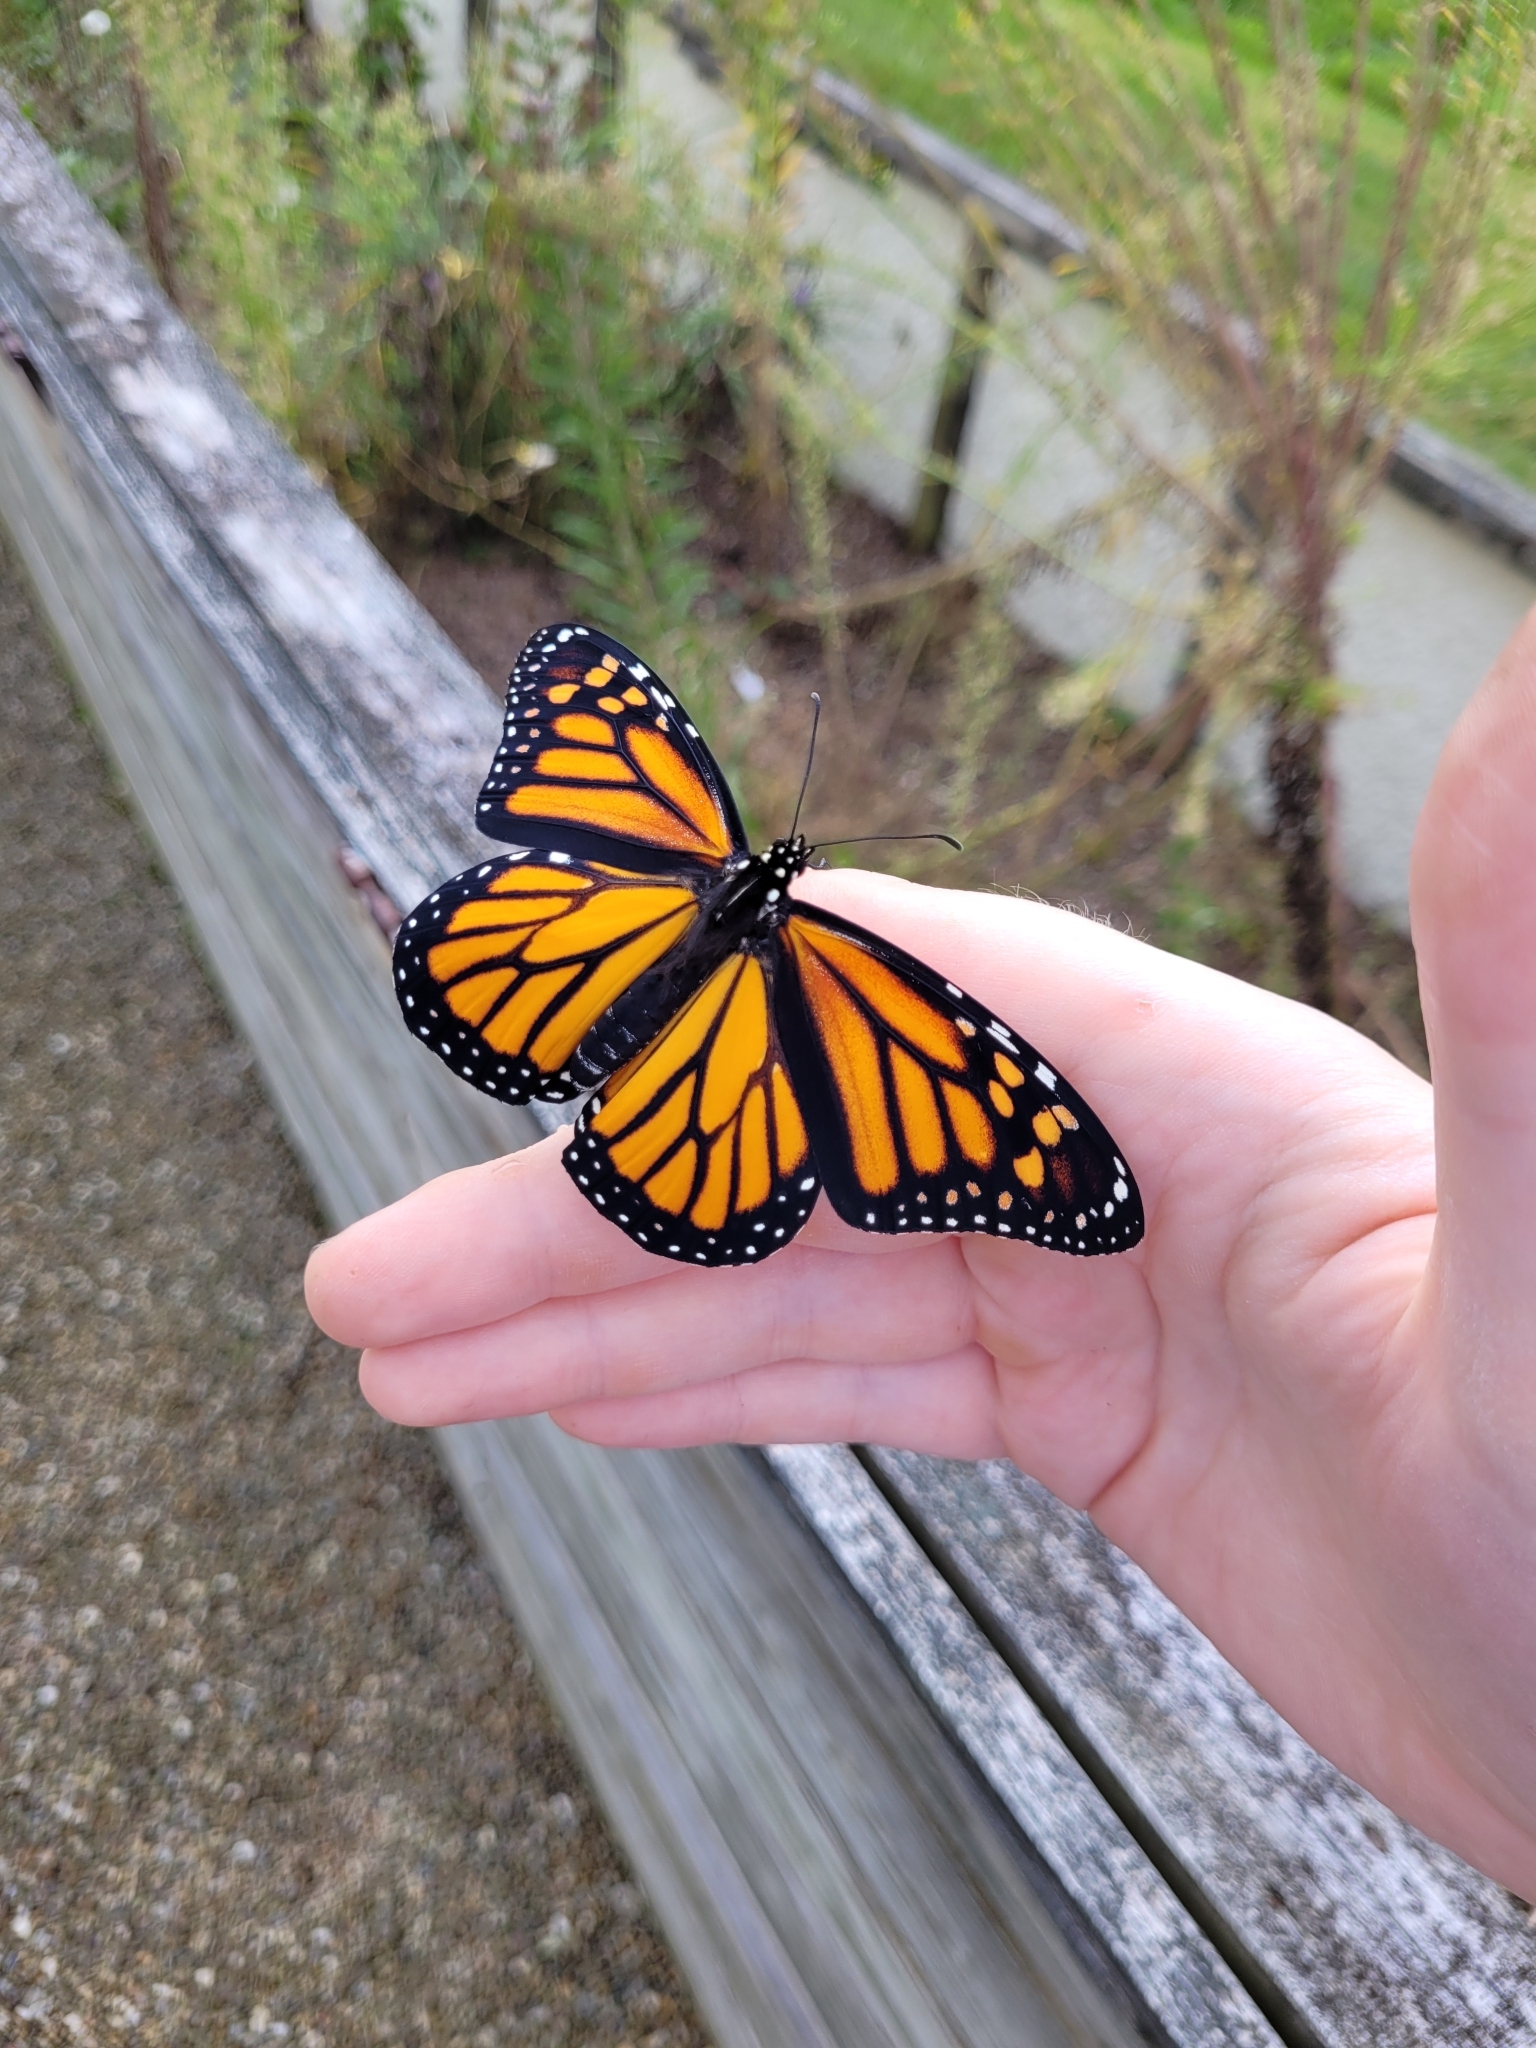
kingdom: Animalia
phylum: Arthropoda
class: Insecta
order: Lepidoptera
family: Nymphalidae
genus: Danaus
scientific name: Danaus plexippus
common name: Monarch
